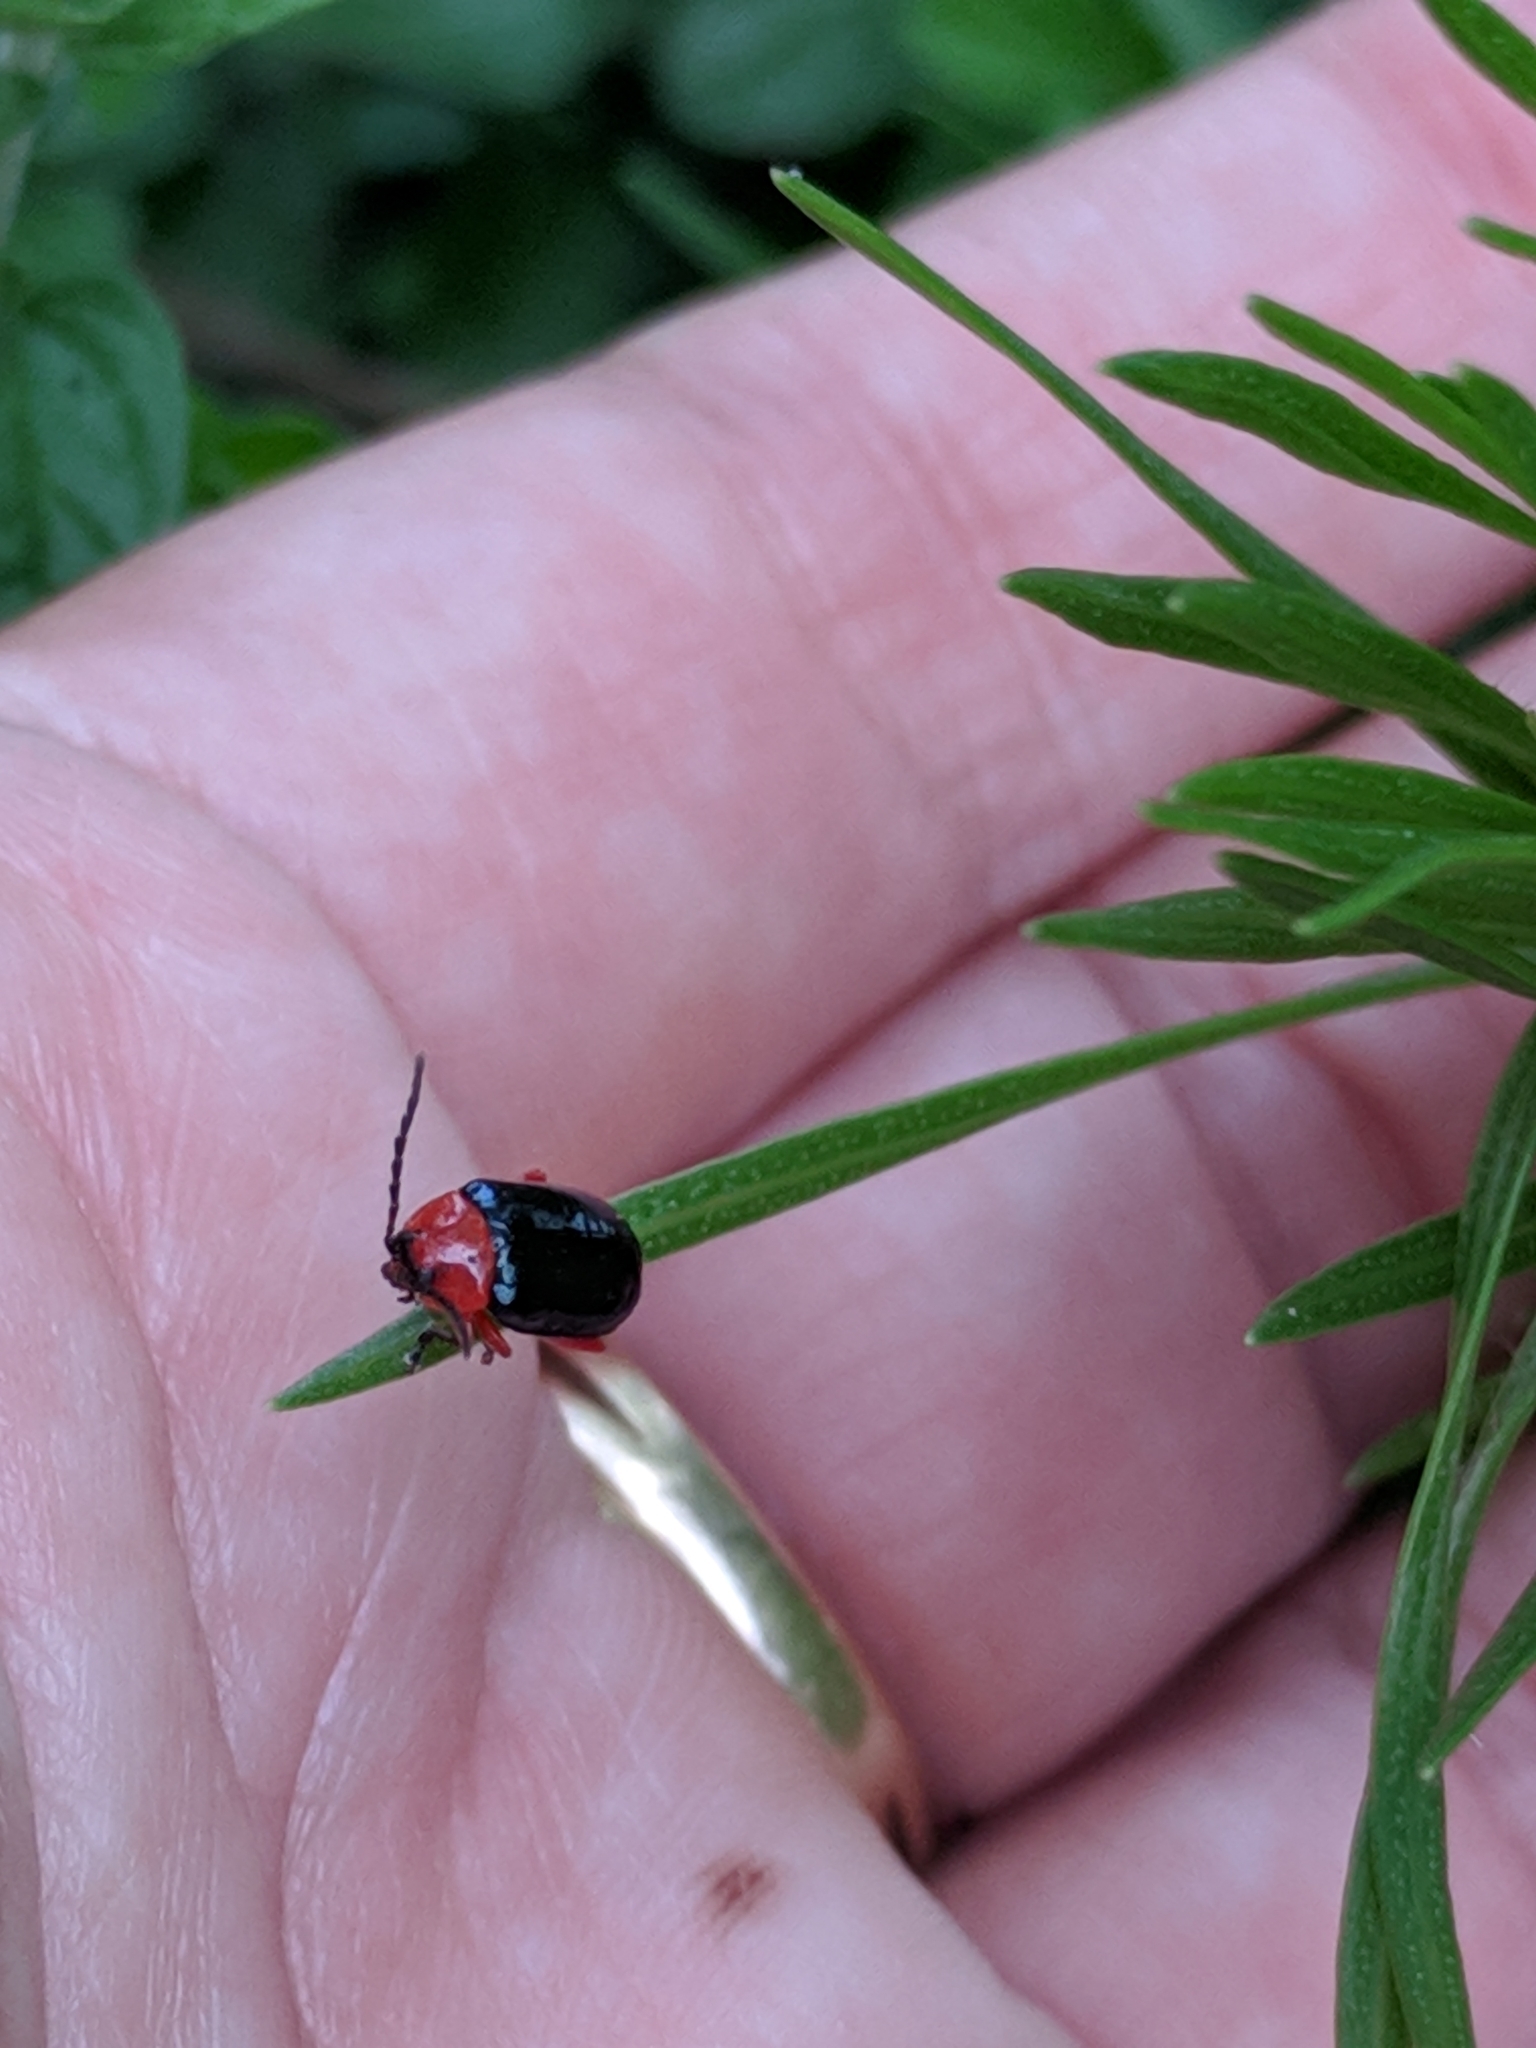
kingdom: Animalia
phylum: Arthropoda
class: Insecta
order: Coleoptera
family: Chrysomelidae
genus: Asphaera
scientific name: Asphaera lustrans
